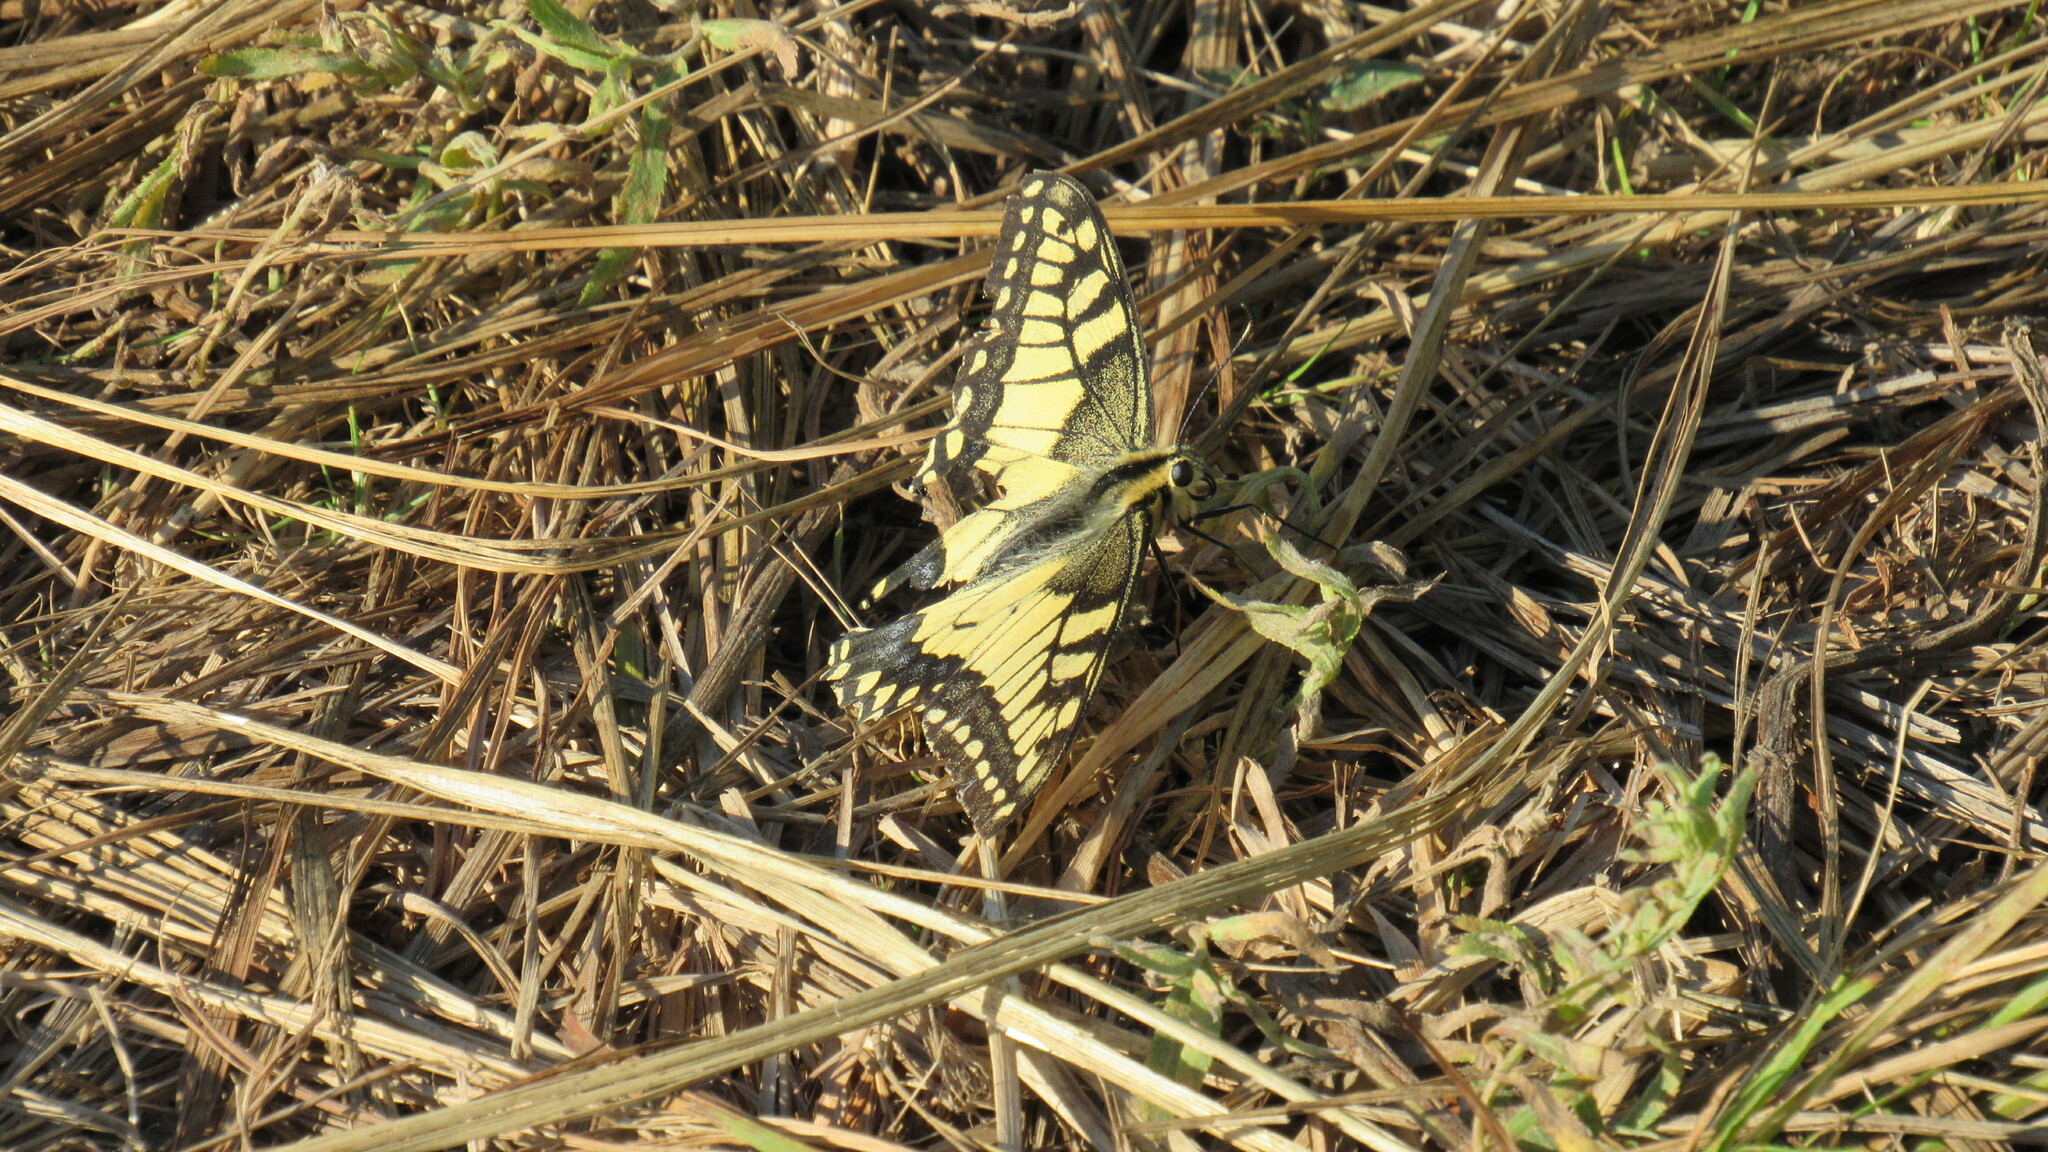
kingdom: Animalia
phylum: Arthropoda
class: Insecta
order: Lepidoptera
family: Papilionidae
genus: Papilio
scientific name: Papilio machaon
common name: Swallowtail
